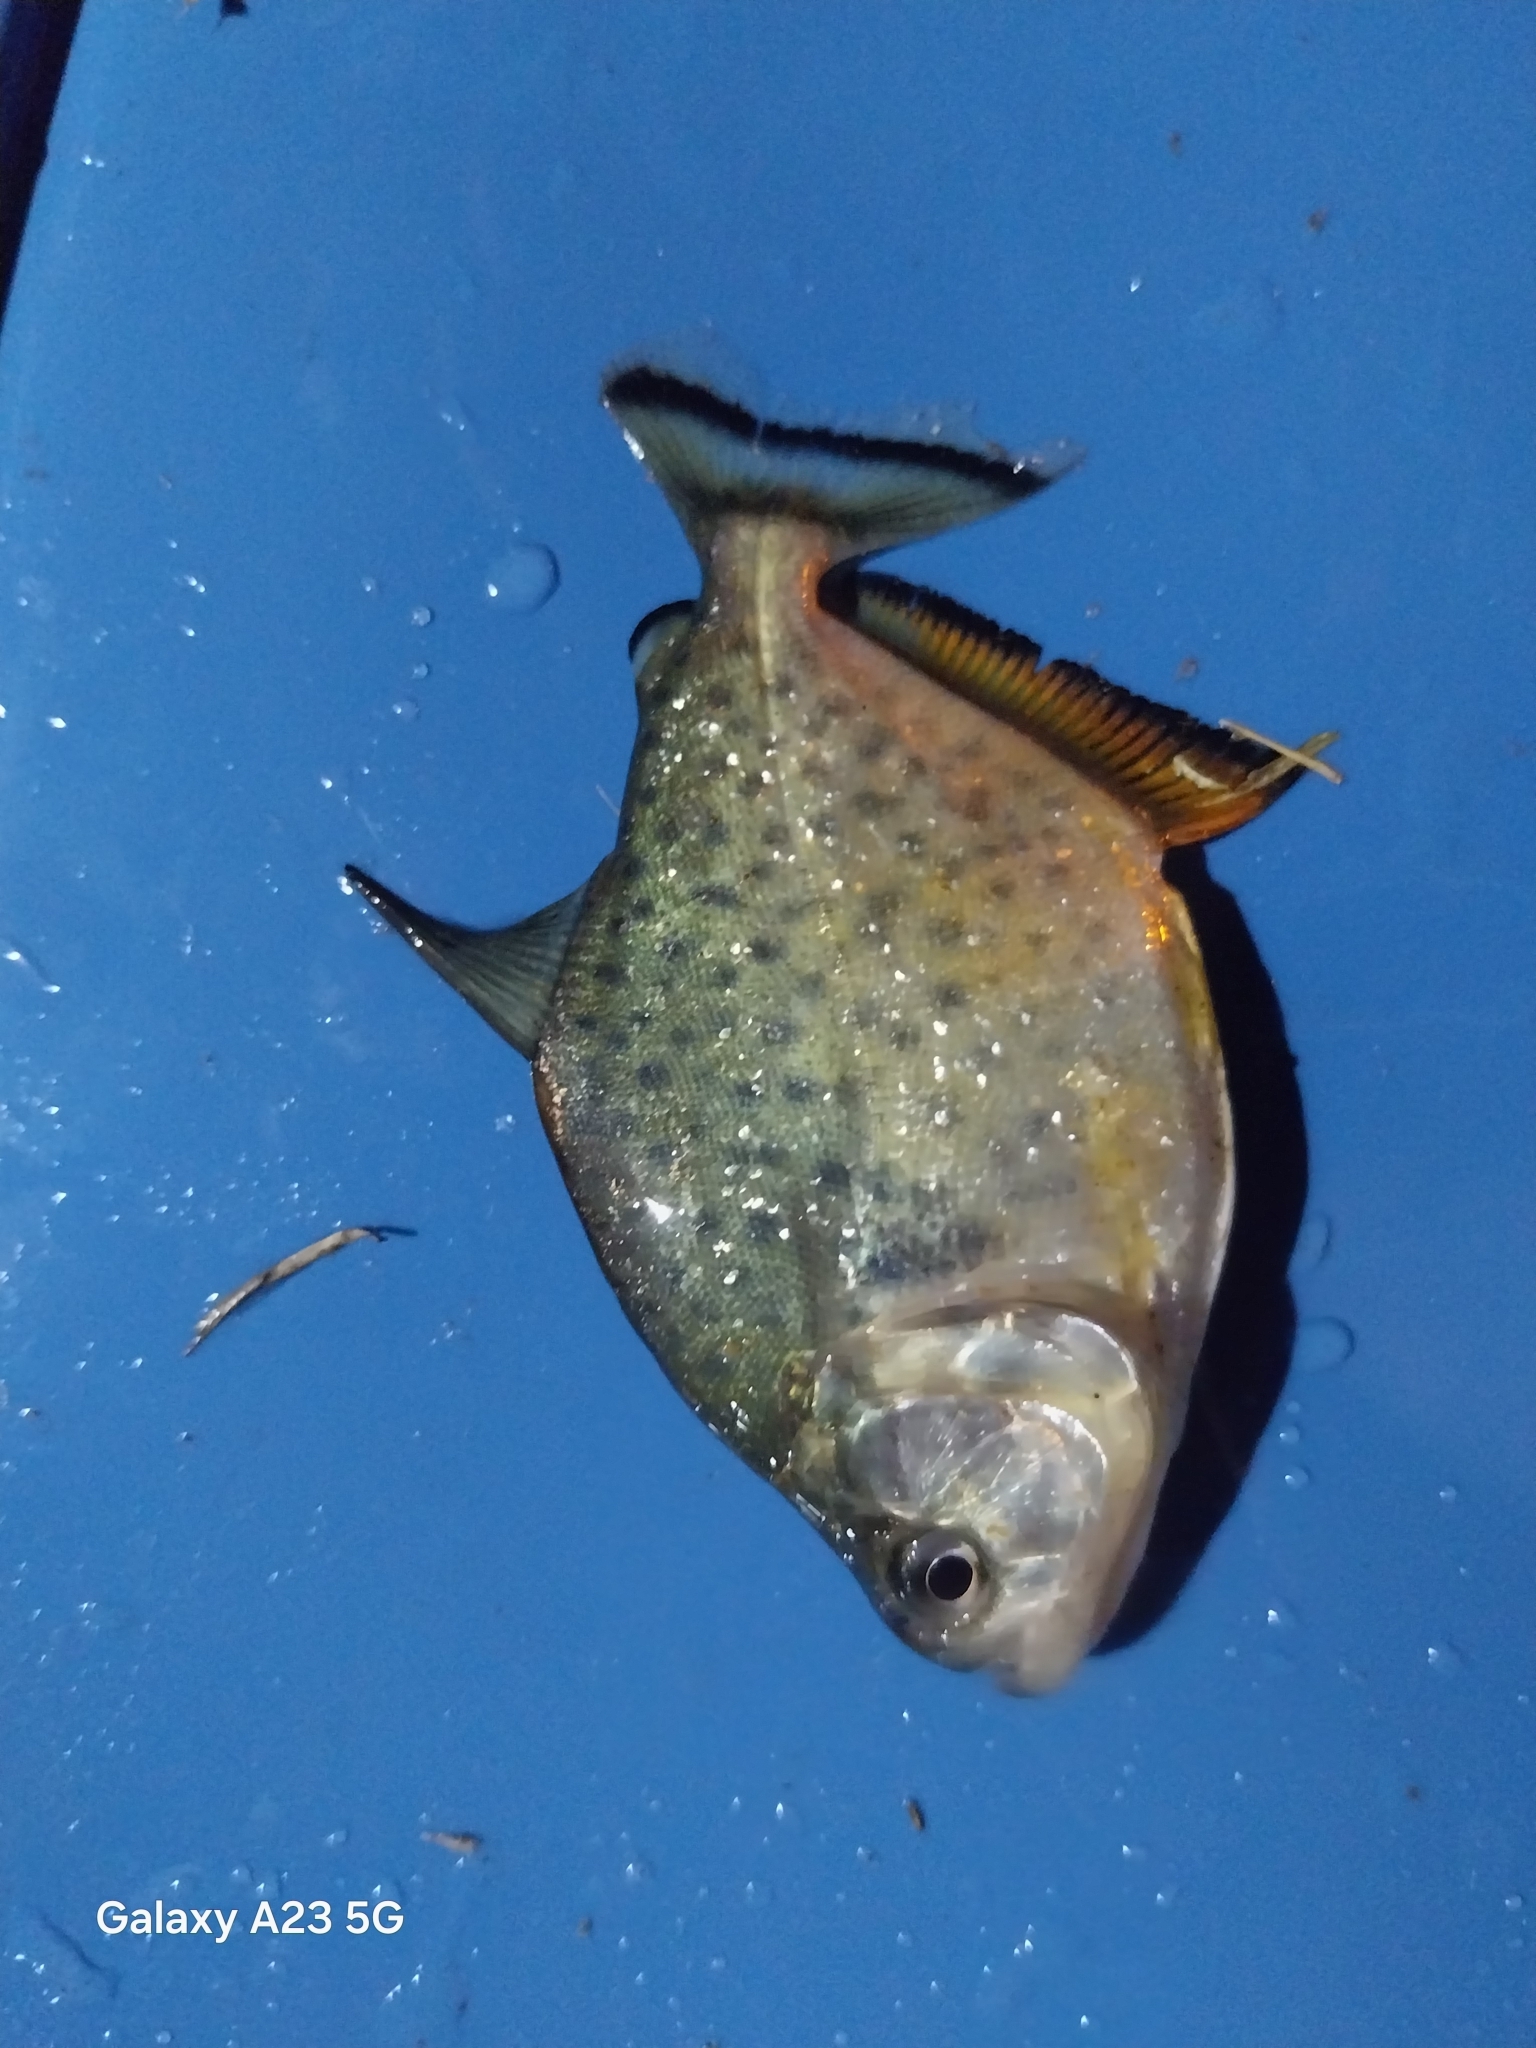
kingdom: Animalia
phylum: Chordata
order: Characiformes
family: Serrasalmidae
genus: Serrasalmus
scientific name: Serrasalmus maculatus
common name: Speckled piranha
